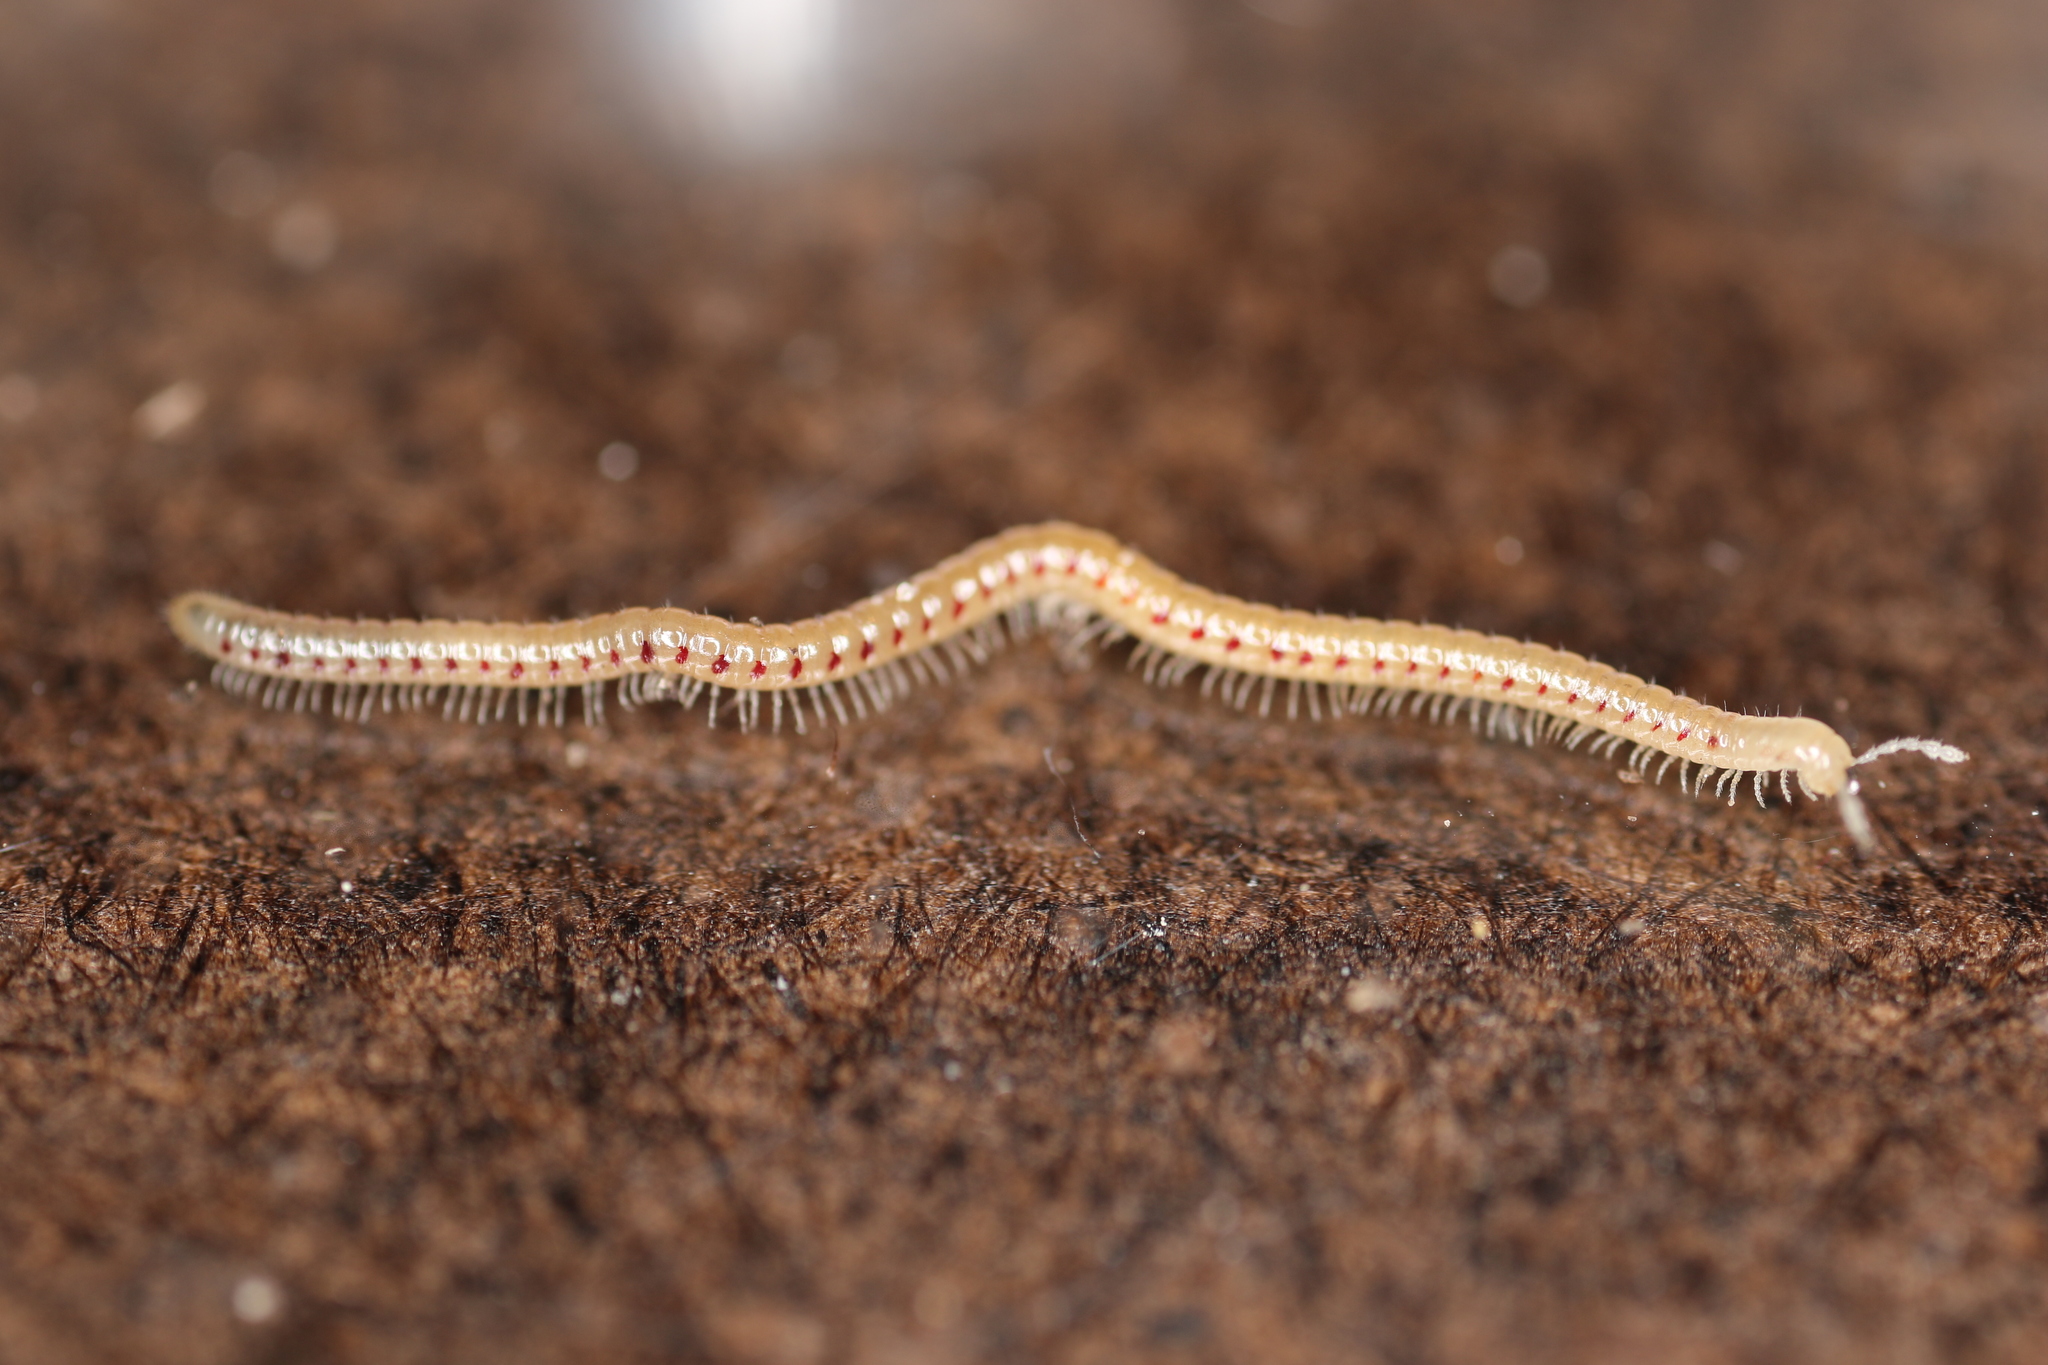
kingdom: Animalia
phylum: Arthropoda
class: Diplopoda
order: Julida
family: Blaniulidae
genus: Blaniulus
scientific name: Blaniulus guttulatus
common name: Spotted snake millipede
